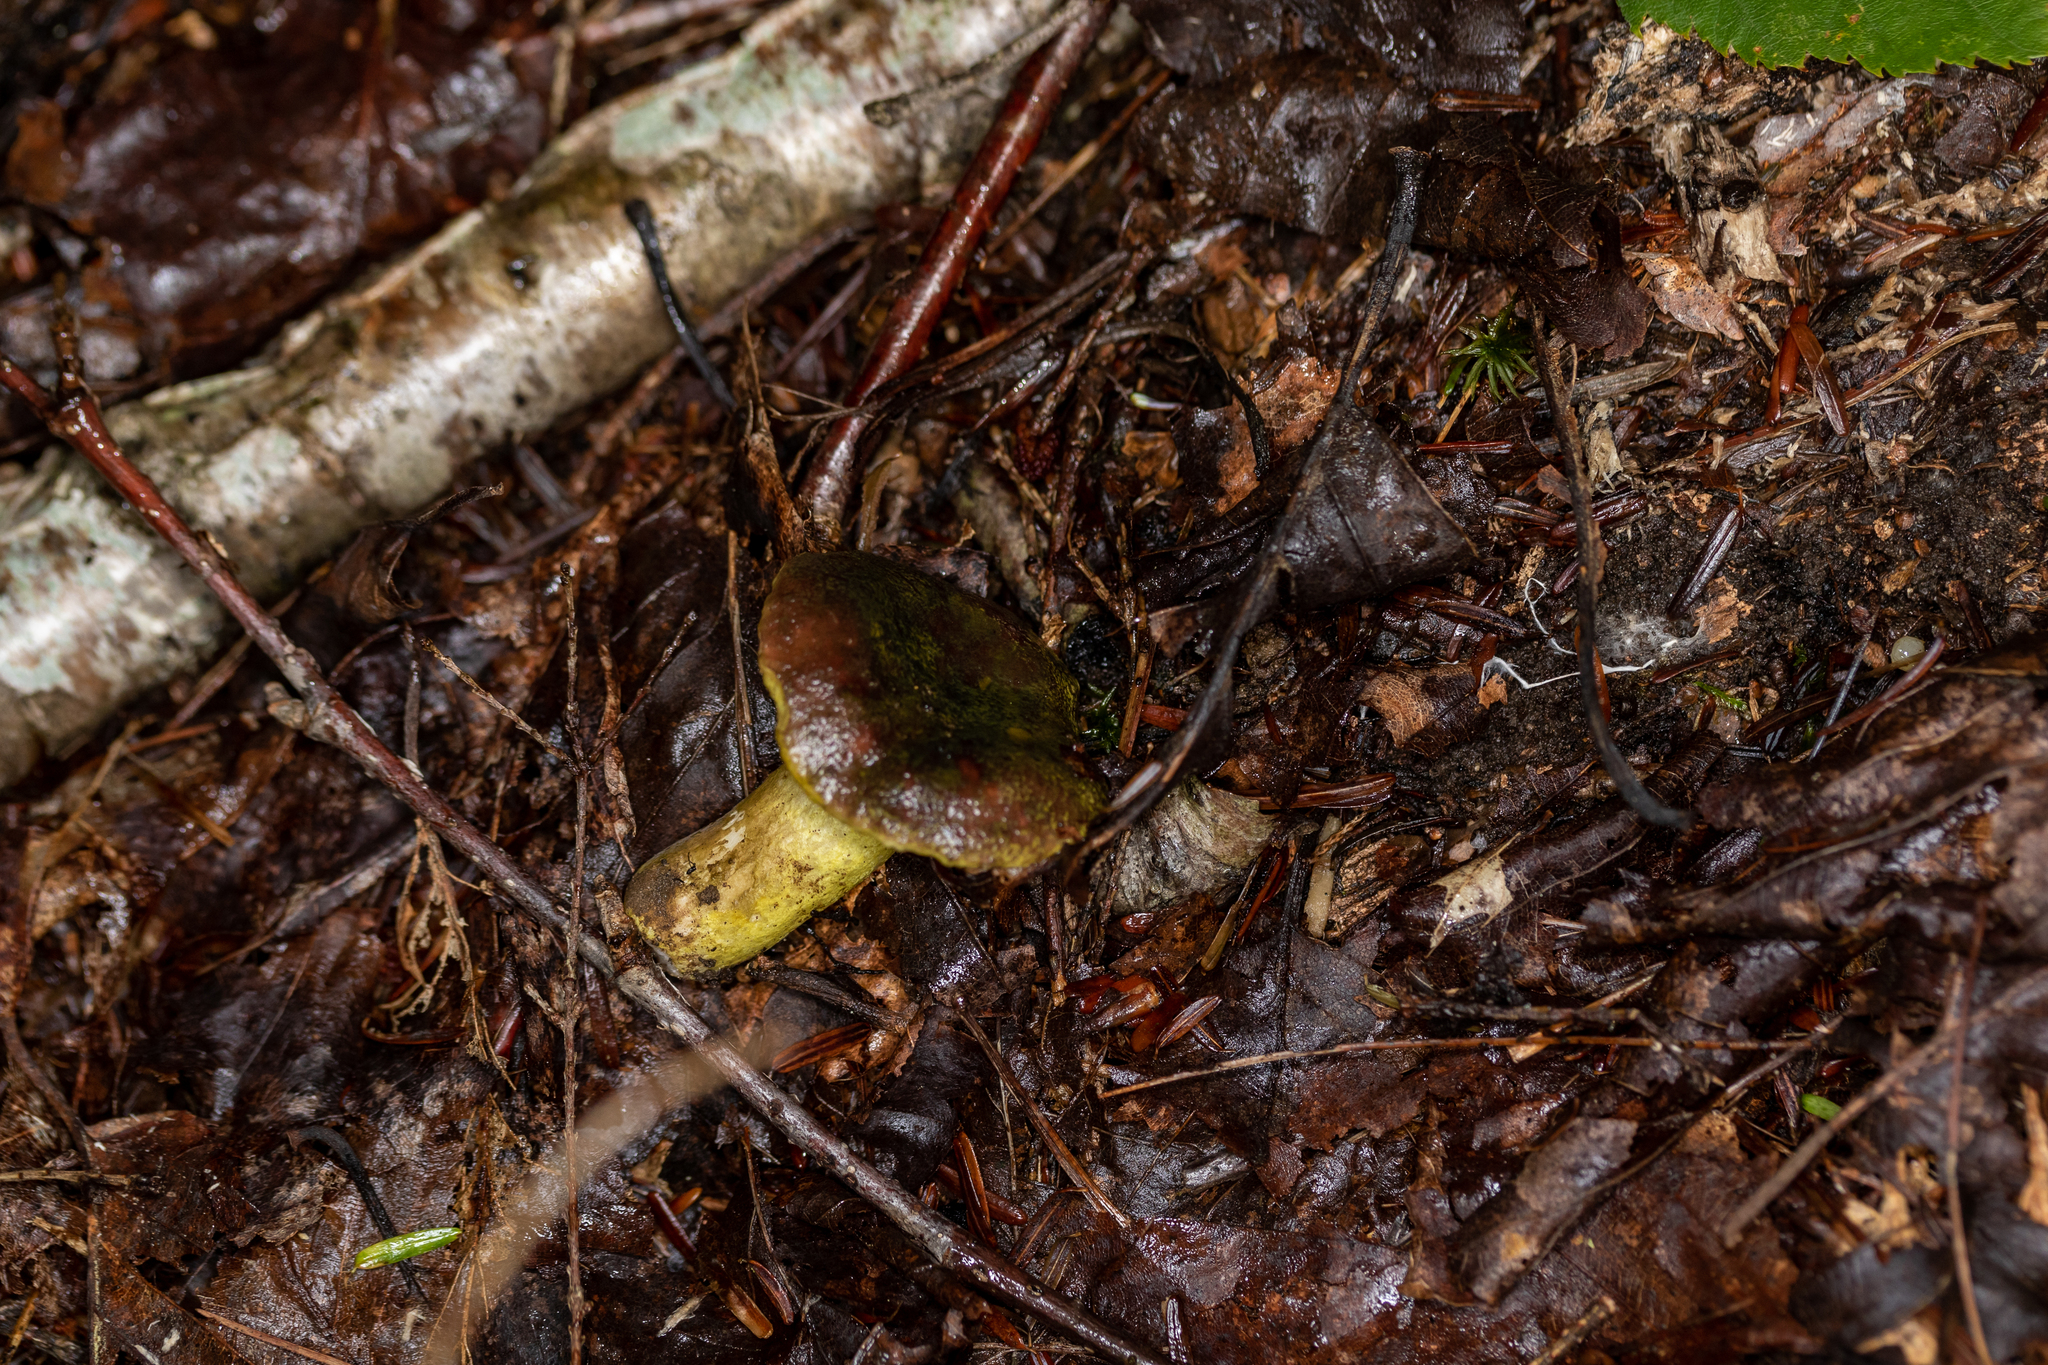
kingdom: Fungi
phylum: Ascomycota
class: Sordariomycetes
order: Hypocreales
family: Hypocreaceae
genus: Hypomyces
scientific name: Hypomyces luteovirens
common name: Yellow-green russula mold
